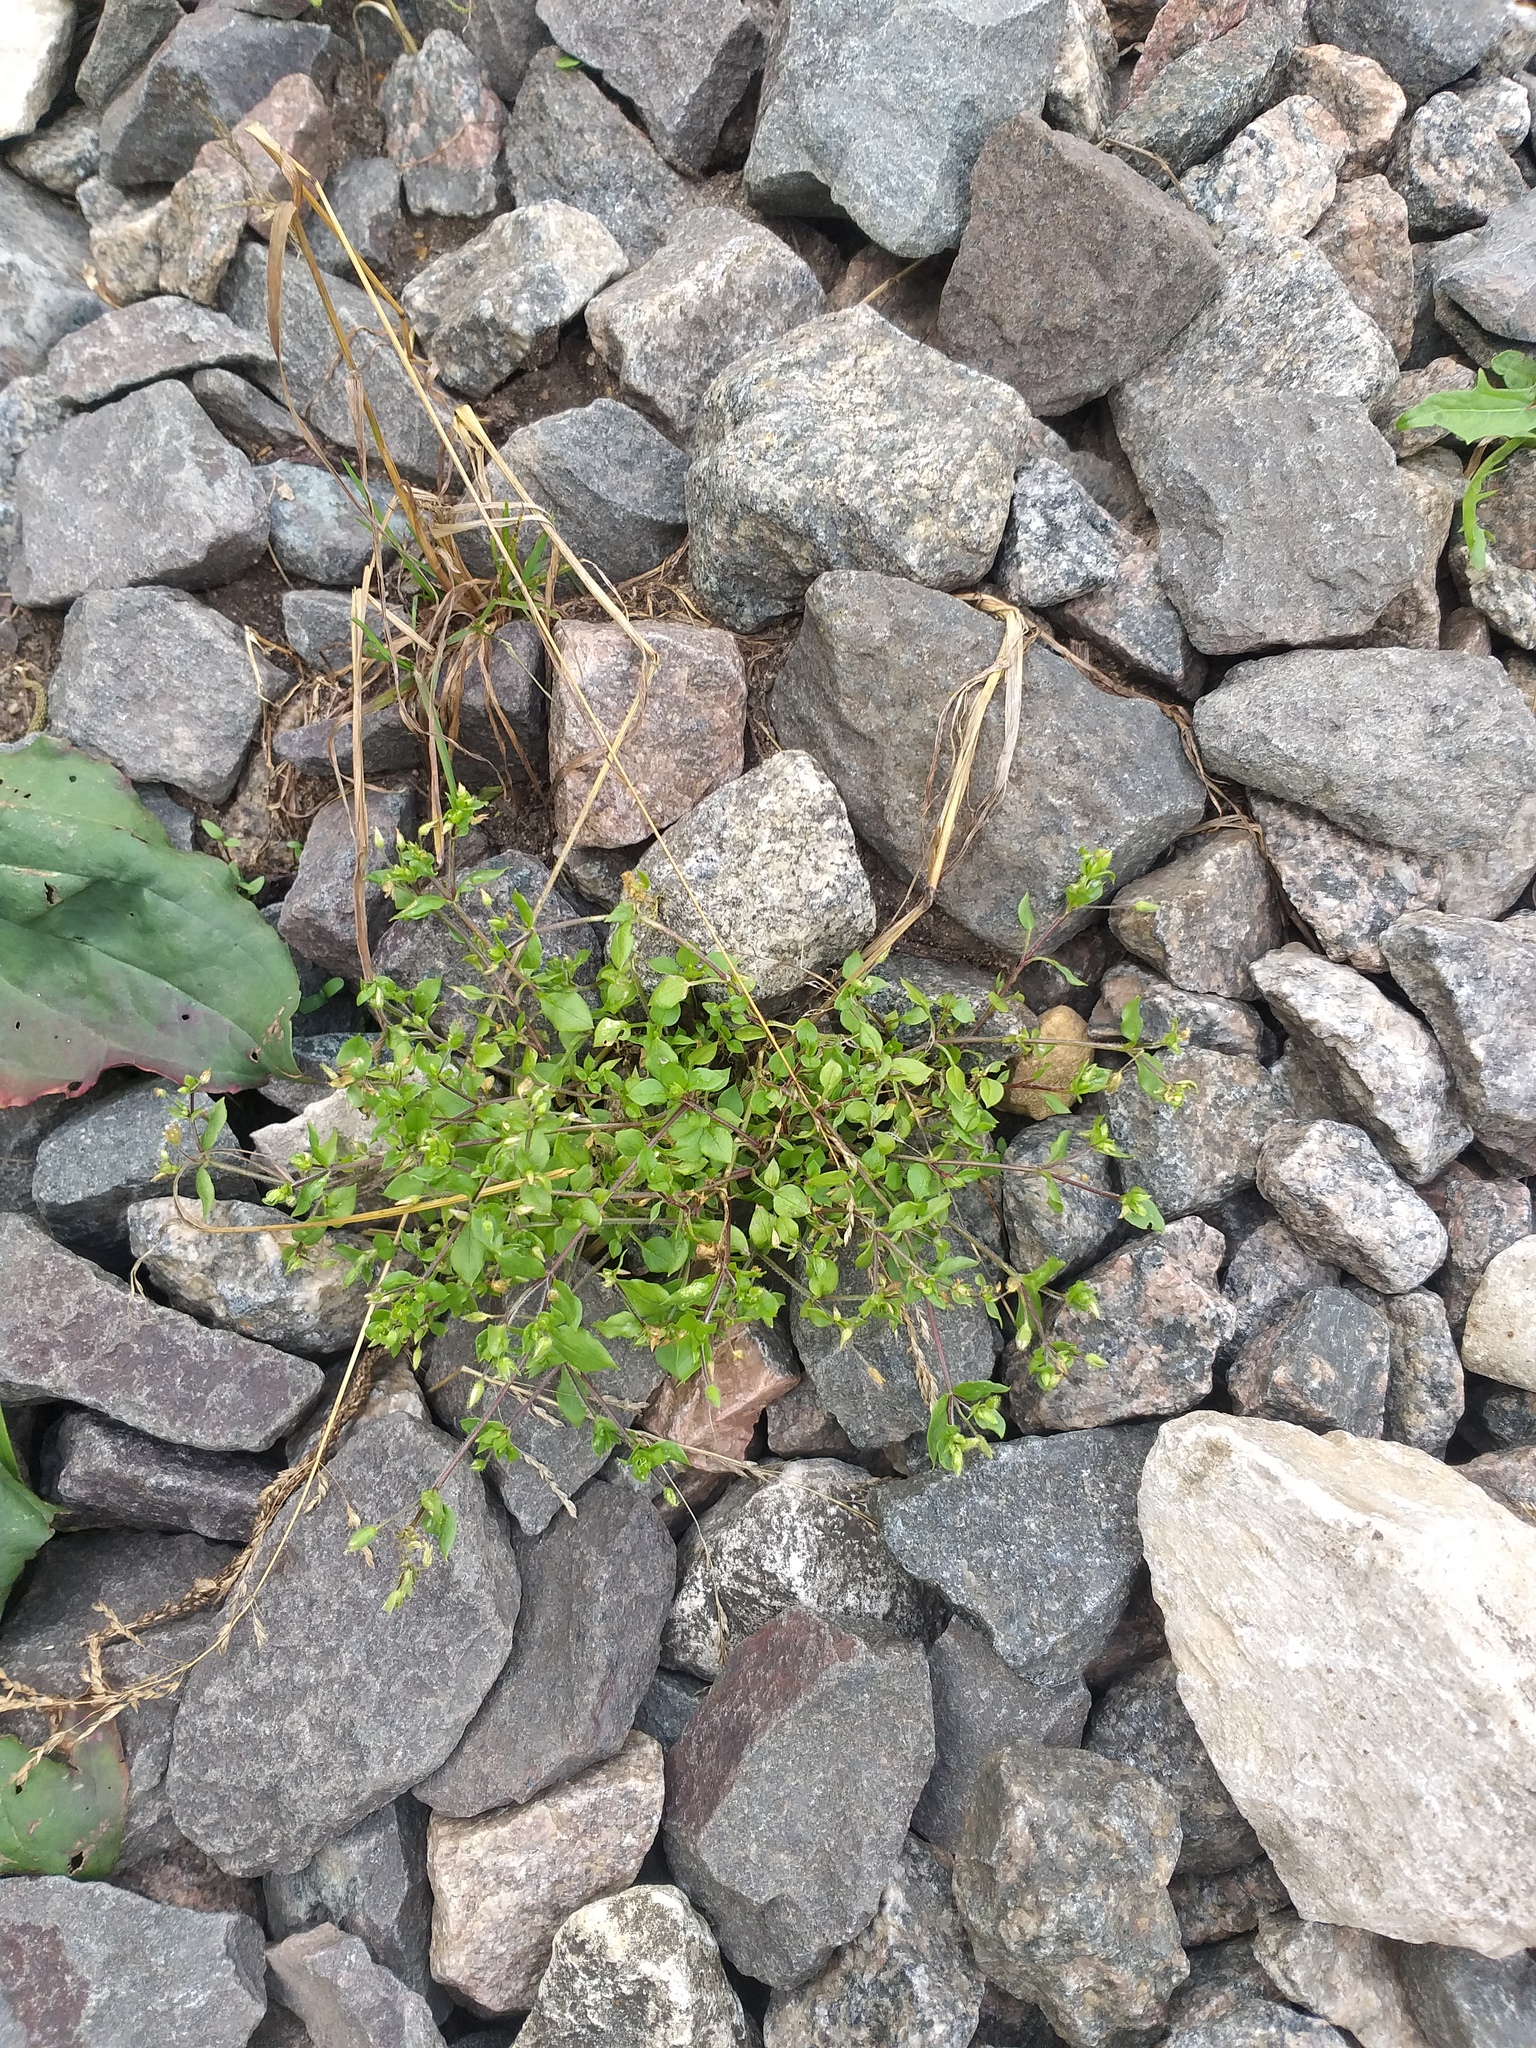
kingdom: Plantae
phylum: Tracheophyta
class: Magnoliopsida
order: Caryophyllales
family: Caryophyllaceae
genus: Stellaria
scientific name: Stellaria media
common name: Common chickweed
